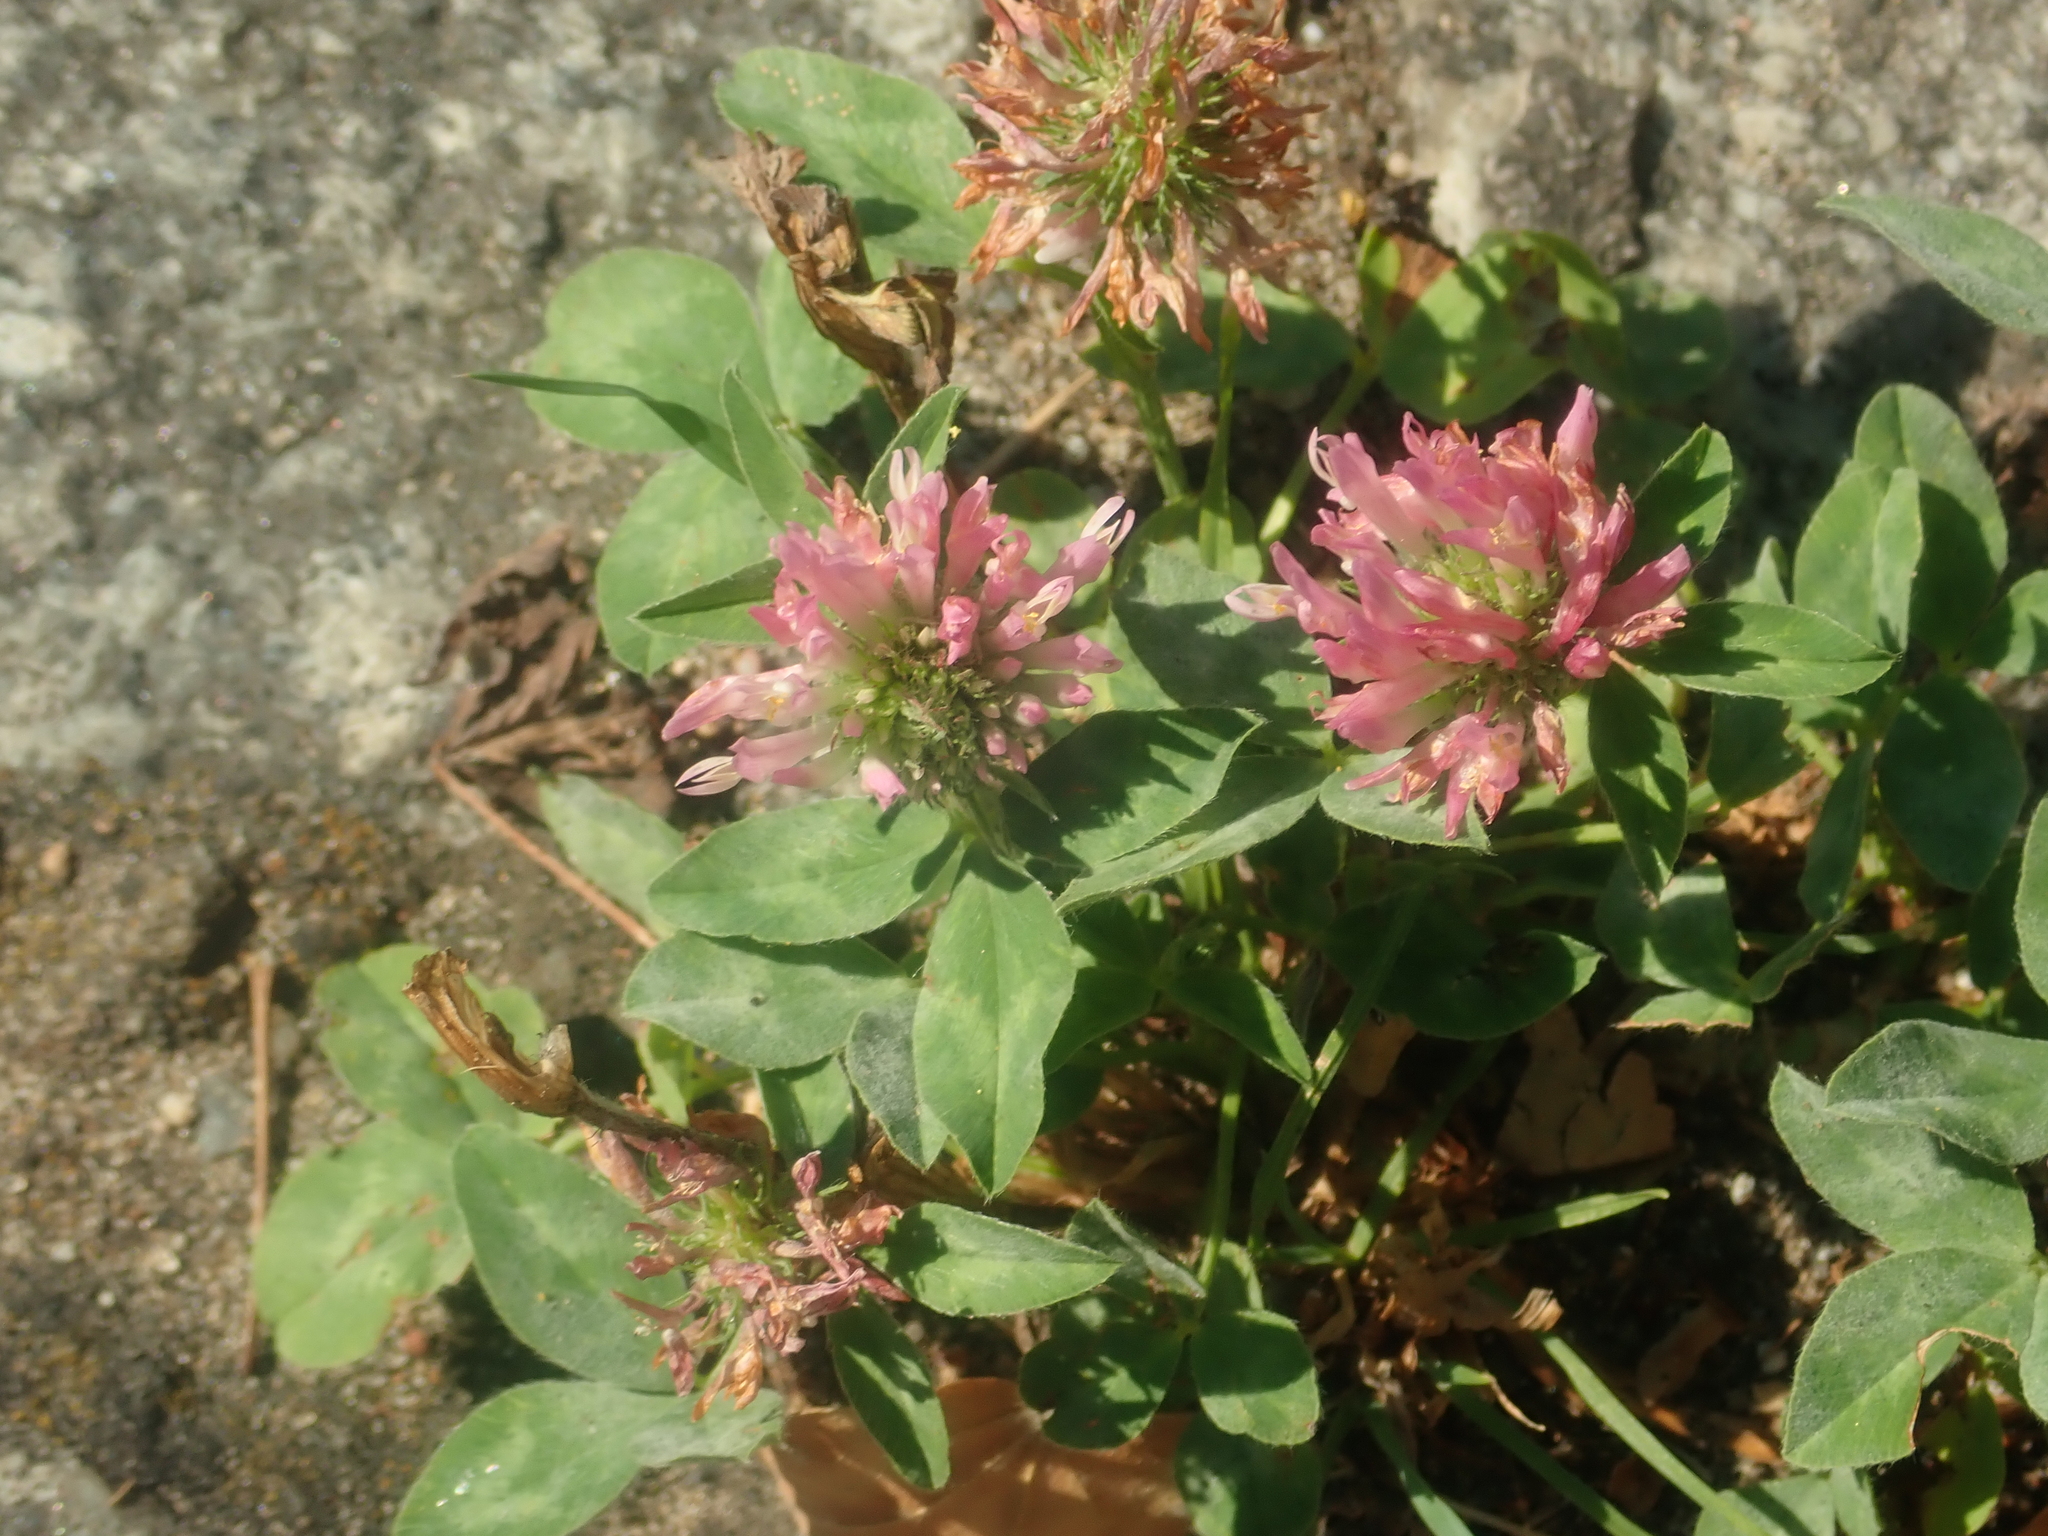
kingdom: Plantae
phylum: Tracheophyta
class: Magnoliopsida
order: Fabales
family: Fabaceae
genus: Trifolium
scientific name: Trifolium pratense
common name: Red clover
